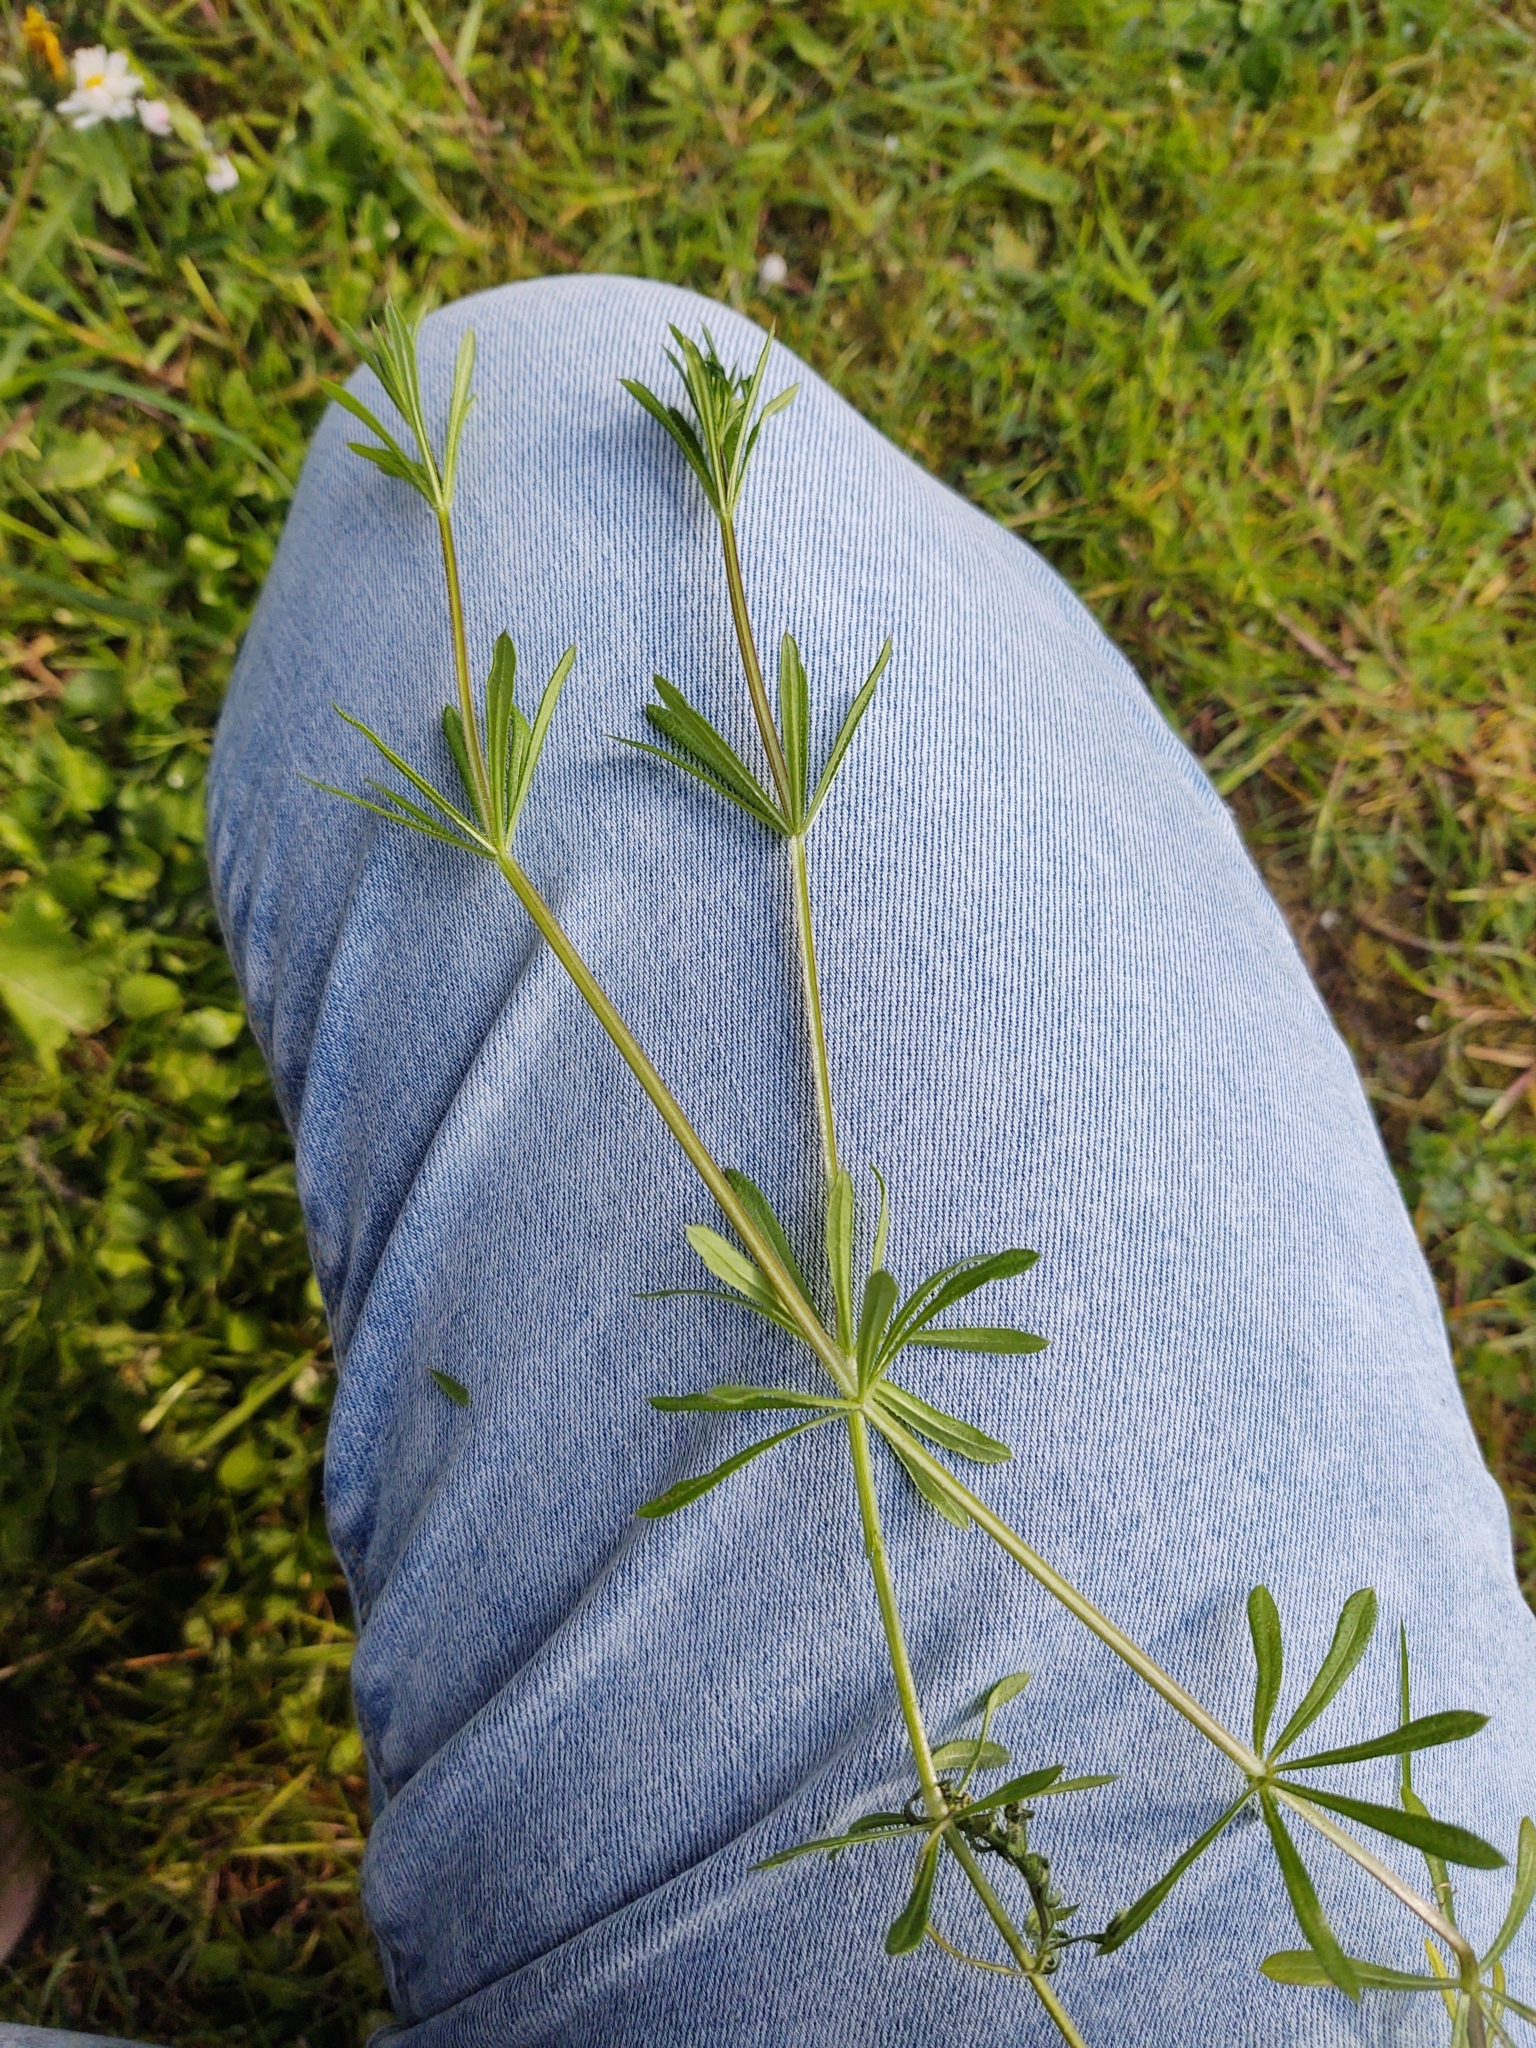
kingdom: Plantae
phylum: Tracheophyta
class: Magnoliopsida
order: Gentianales
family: Rubiaceae
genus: Galium
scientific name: Galium aparine
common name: Cleavers
